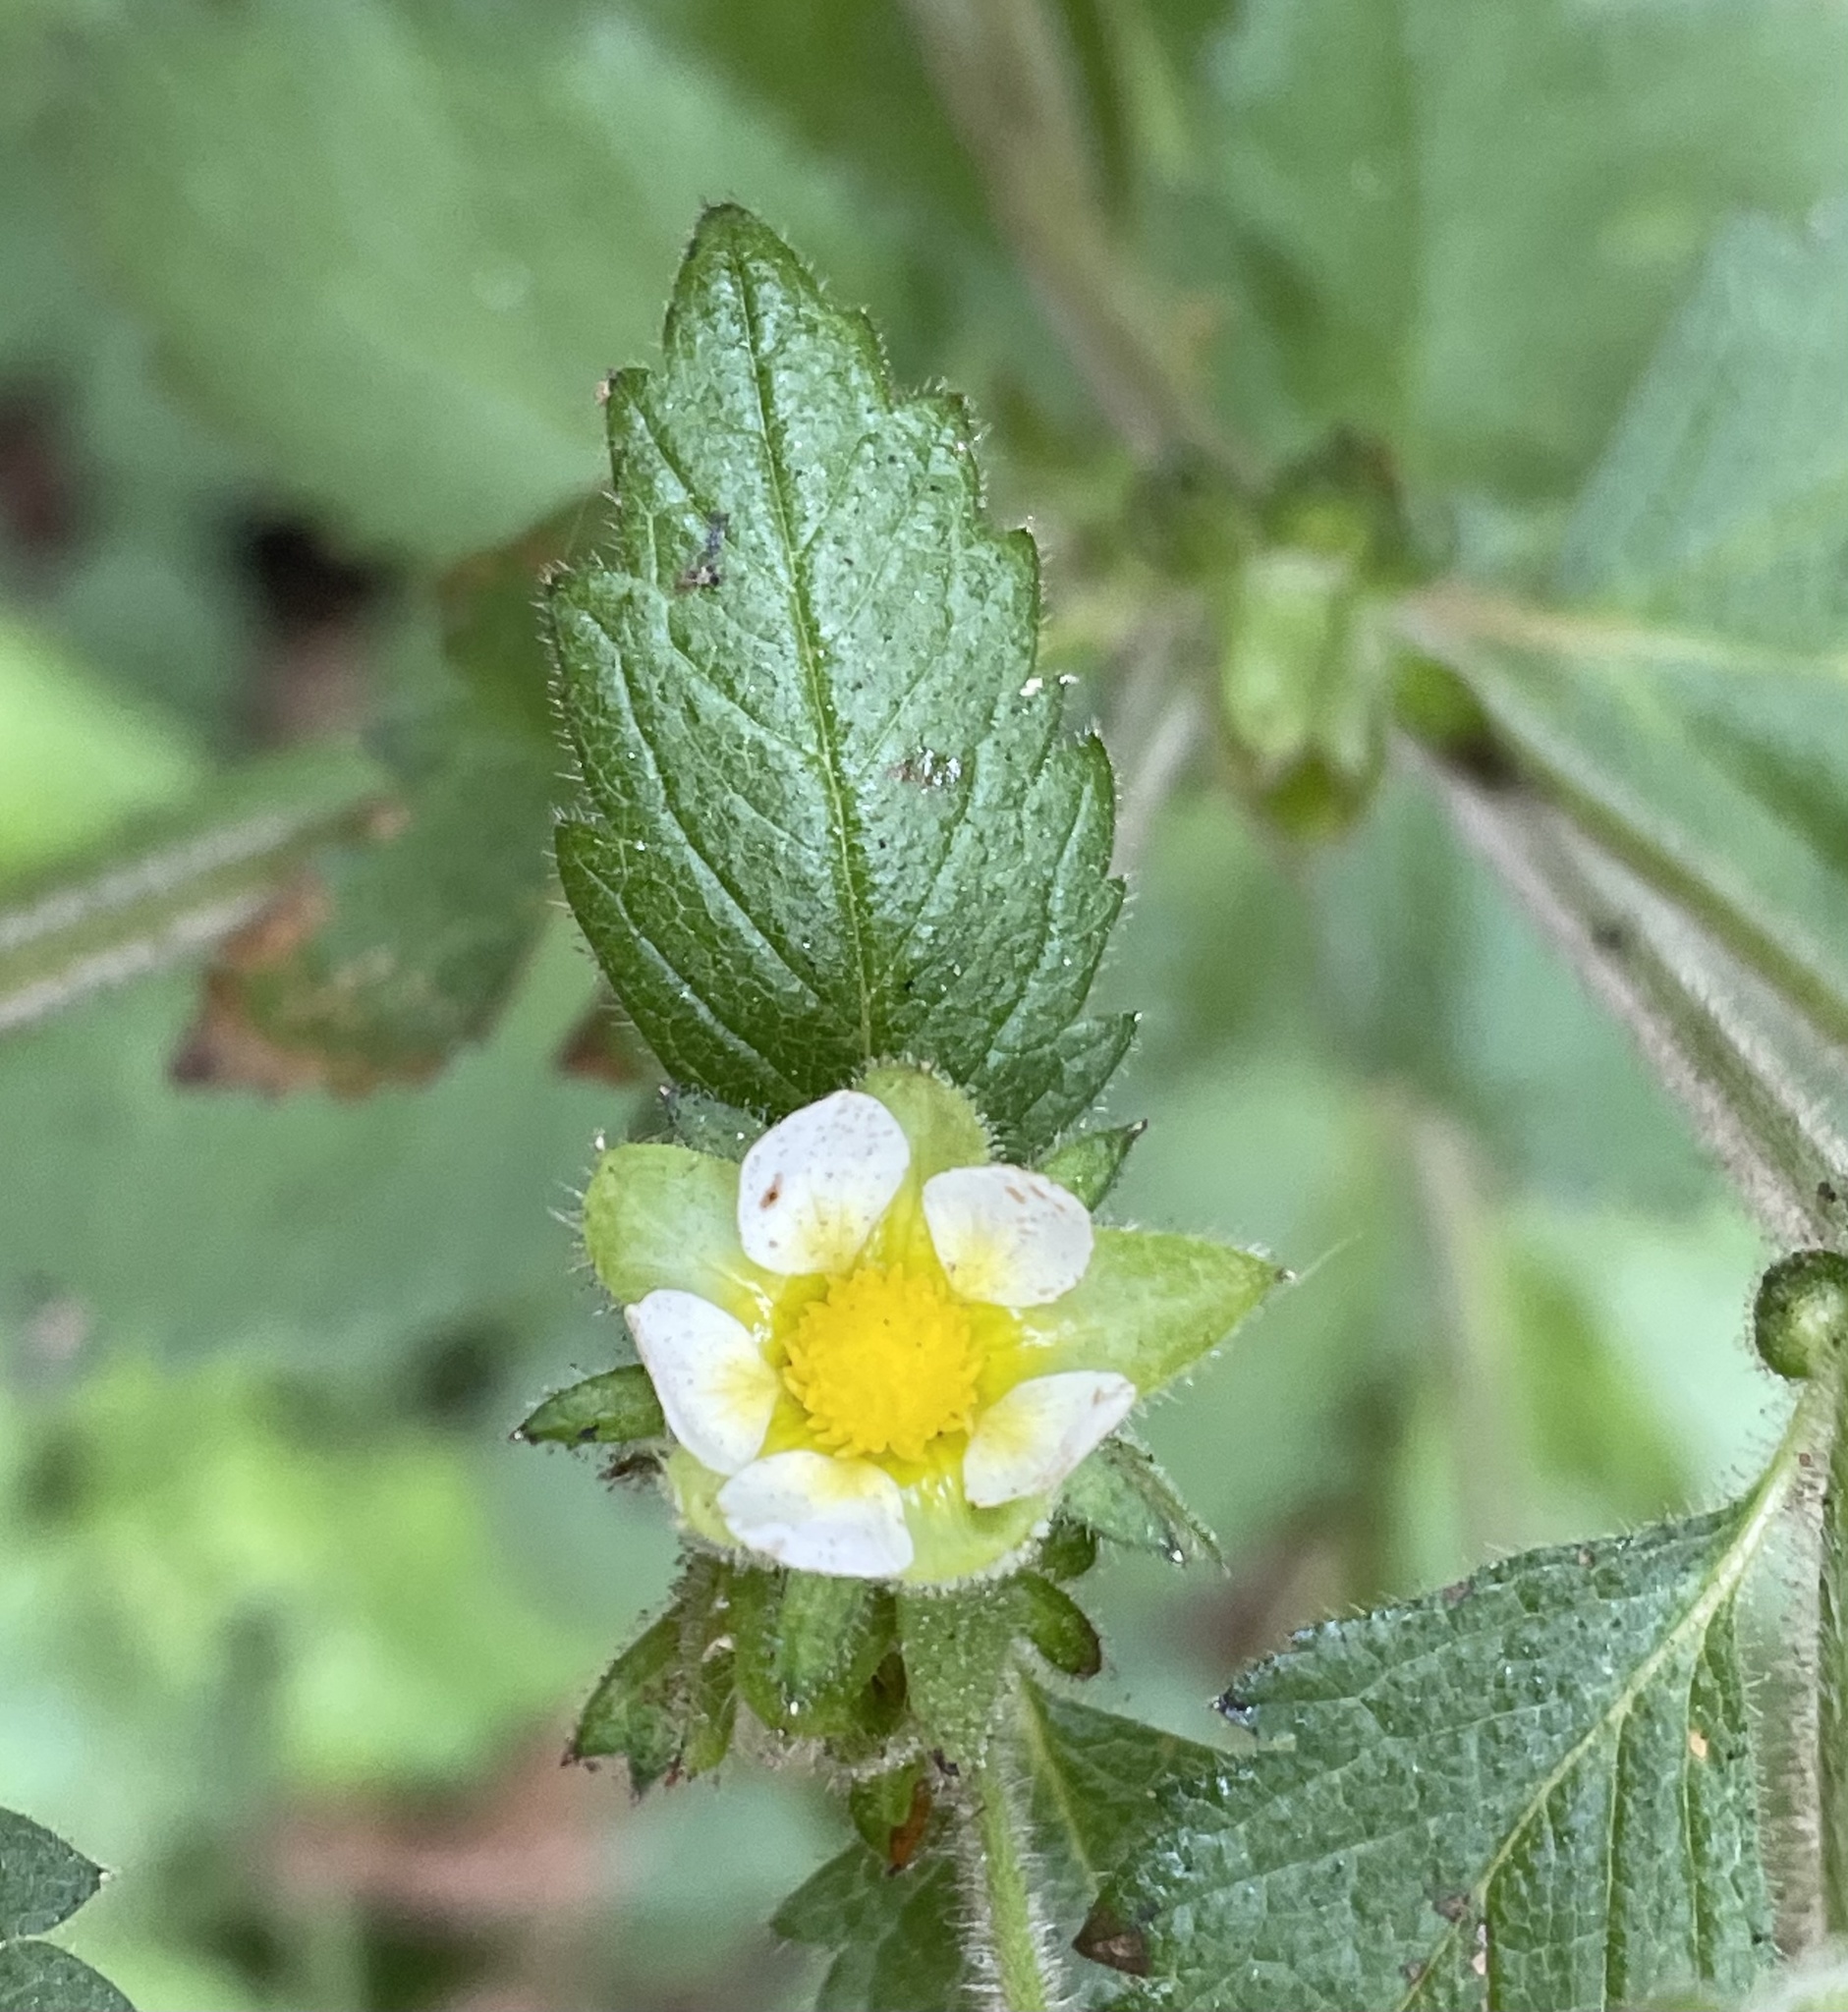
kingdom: Plantae
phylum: Tracheophyta
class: Magnoliopsida
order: Rosales
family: Rosaceae
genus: Drymocallis
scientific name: Drymocallis glandulosa
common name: Sticky cinquefoil
